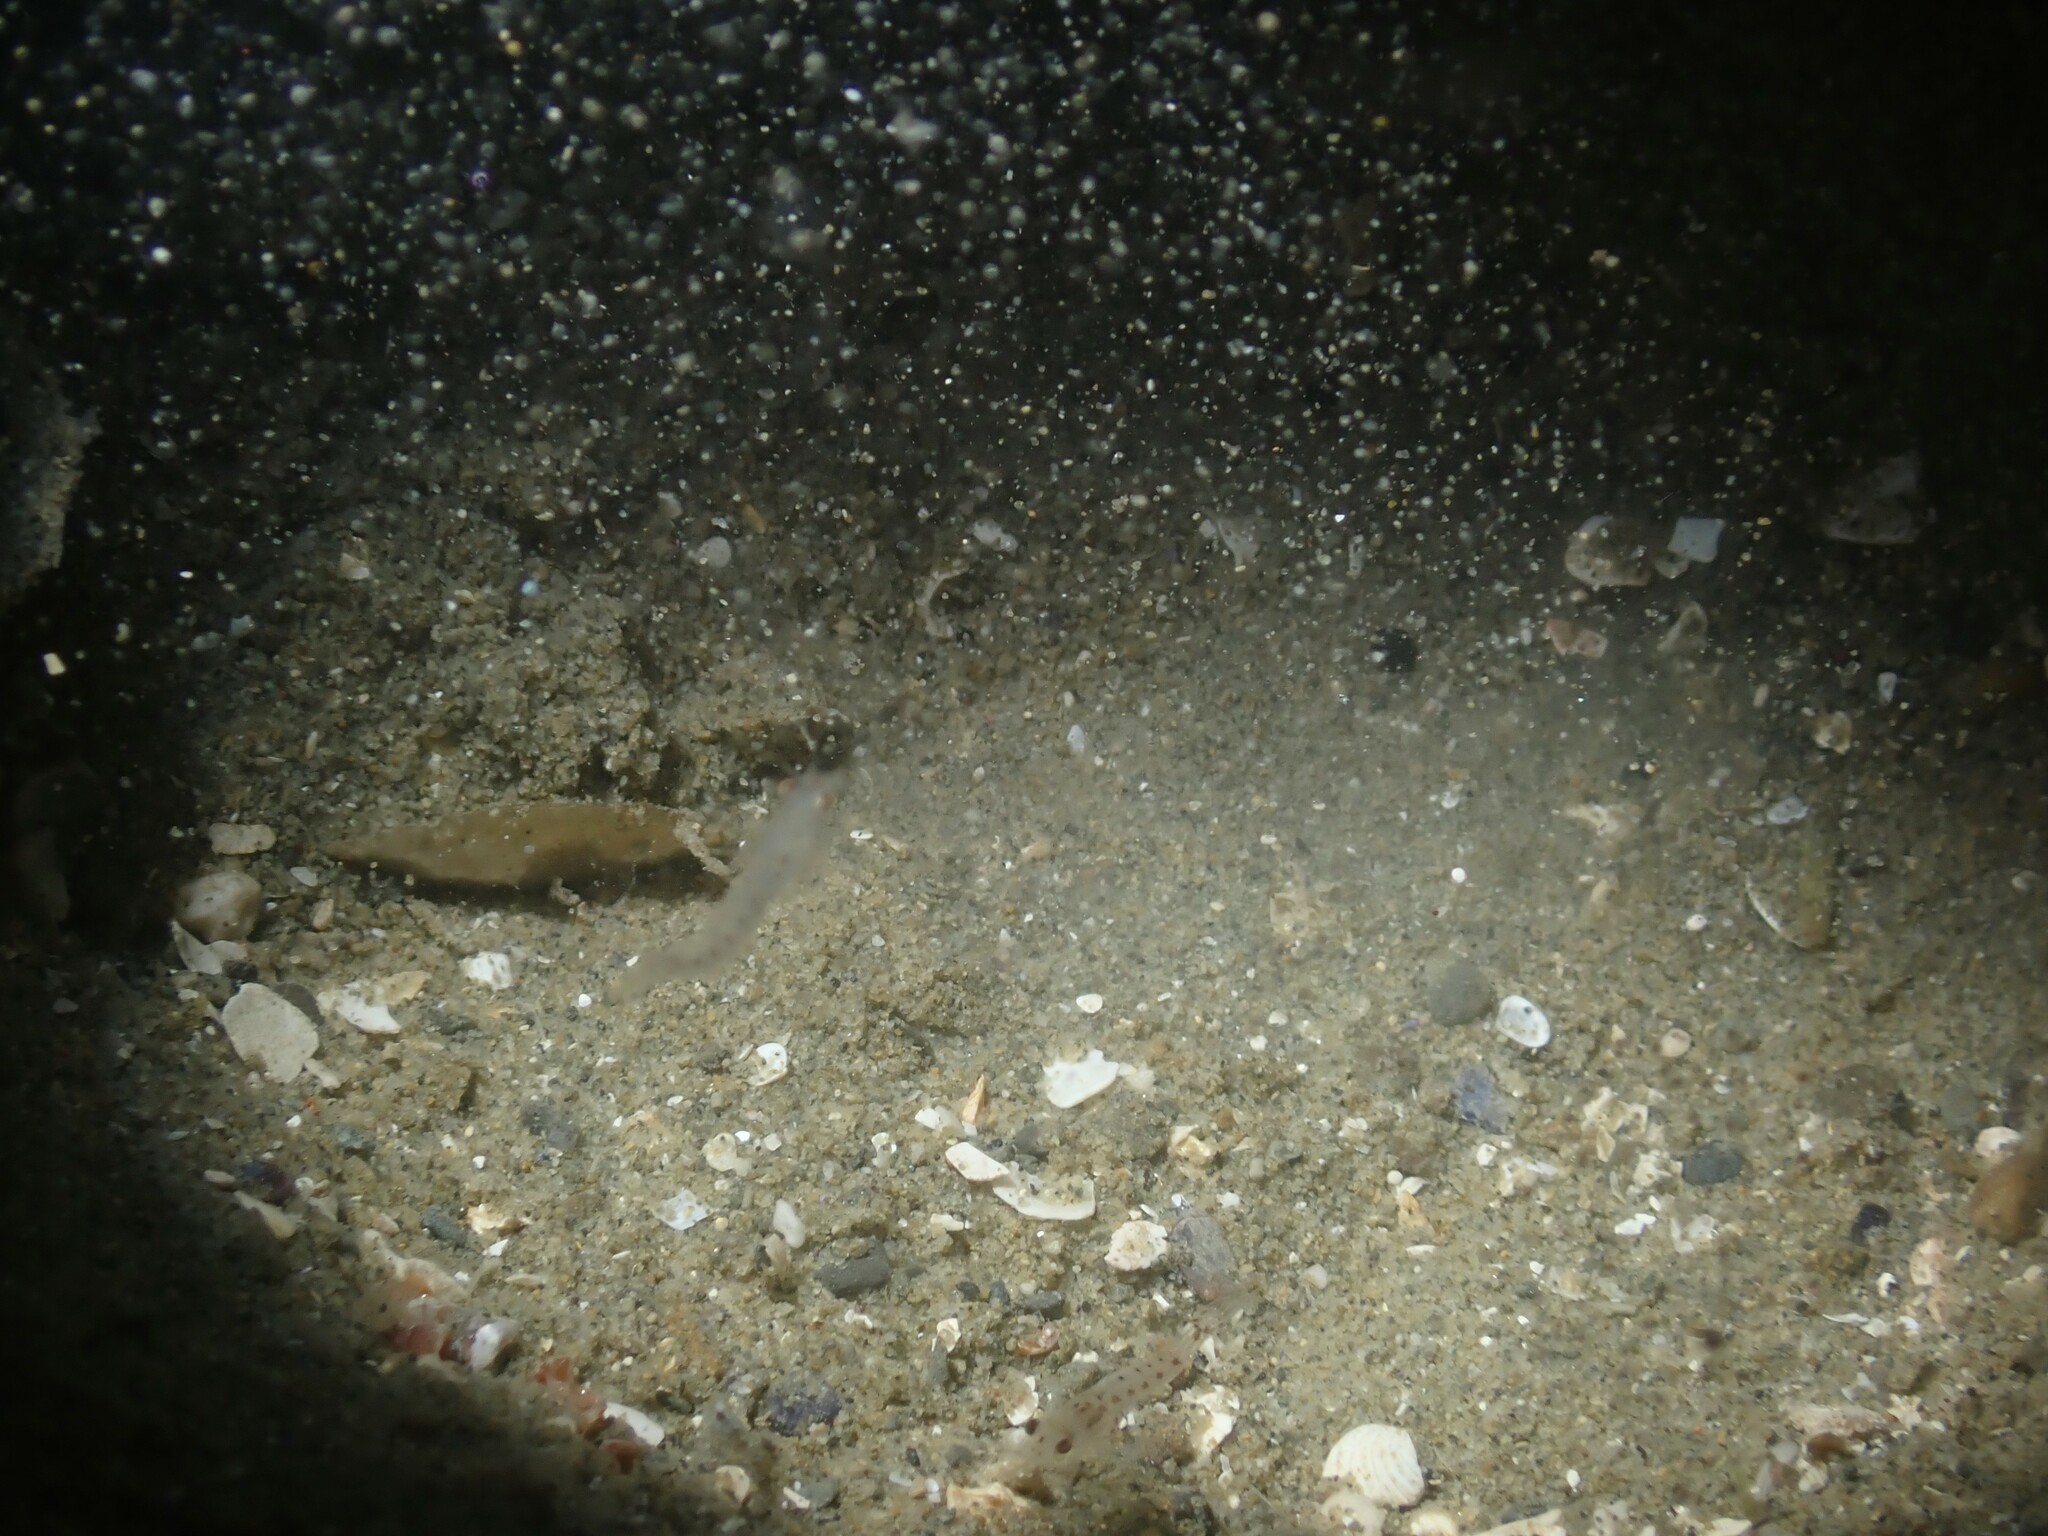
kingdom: Animalia
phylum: Chordata
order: Perciformes
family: Sparidae
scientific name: Sparidae
